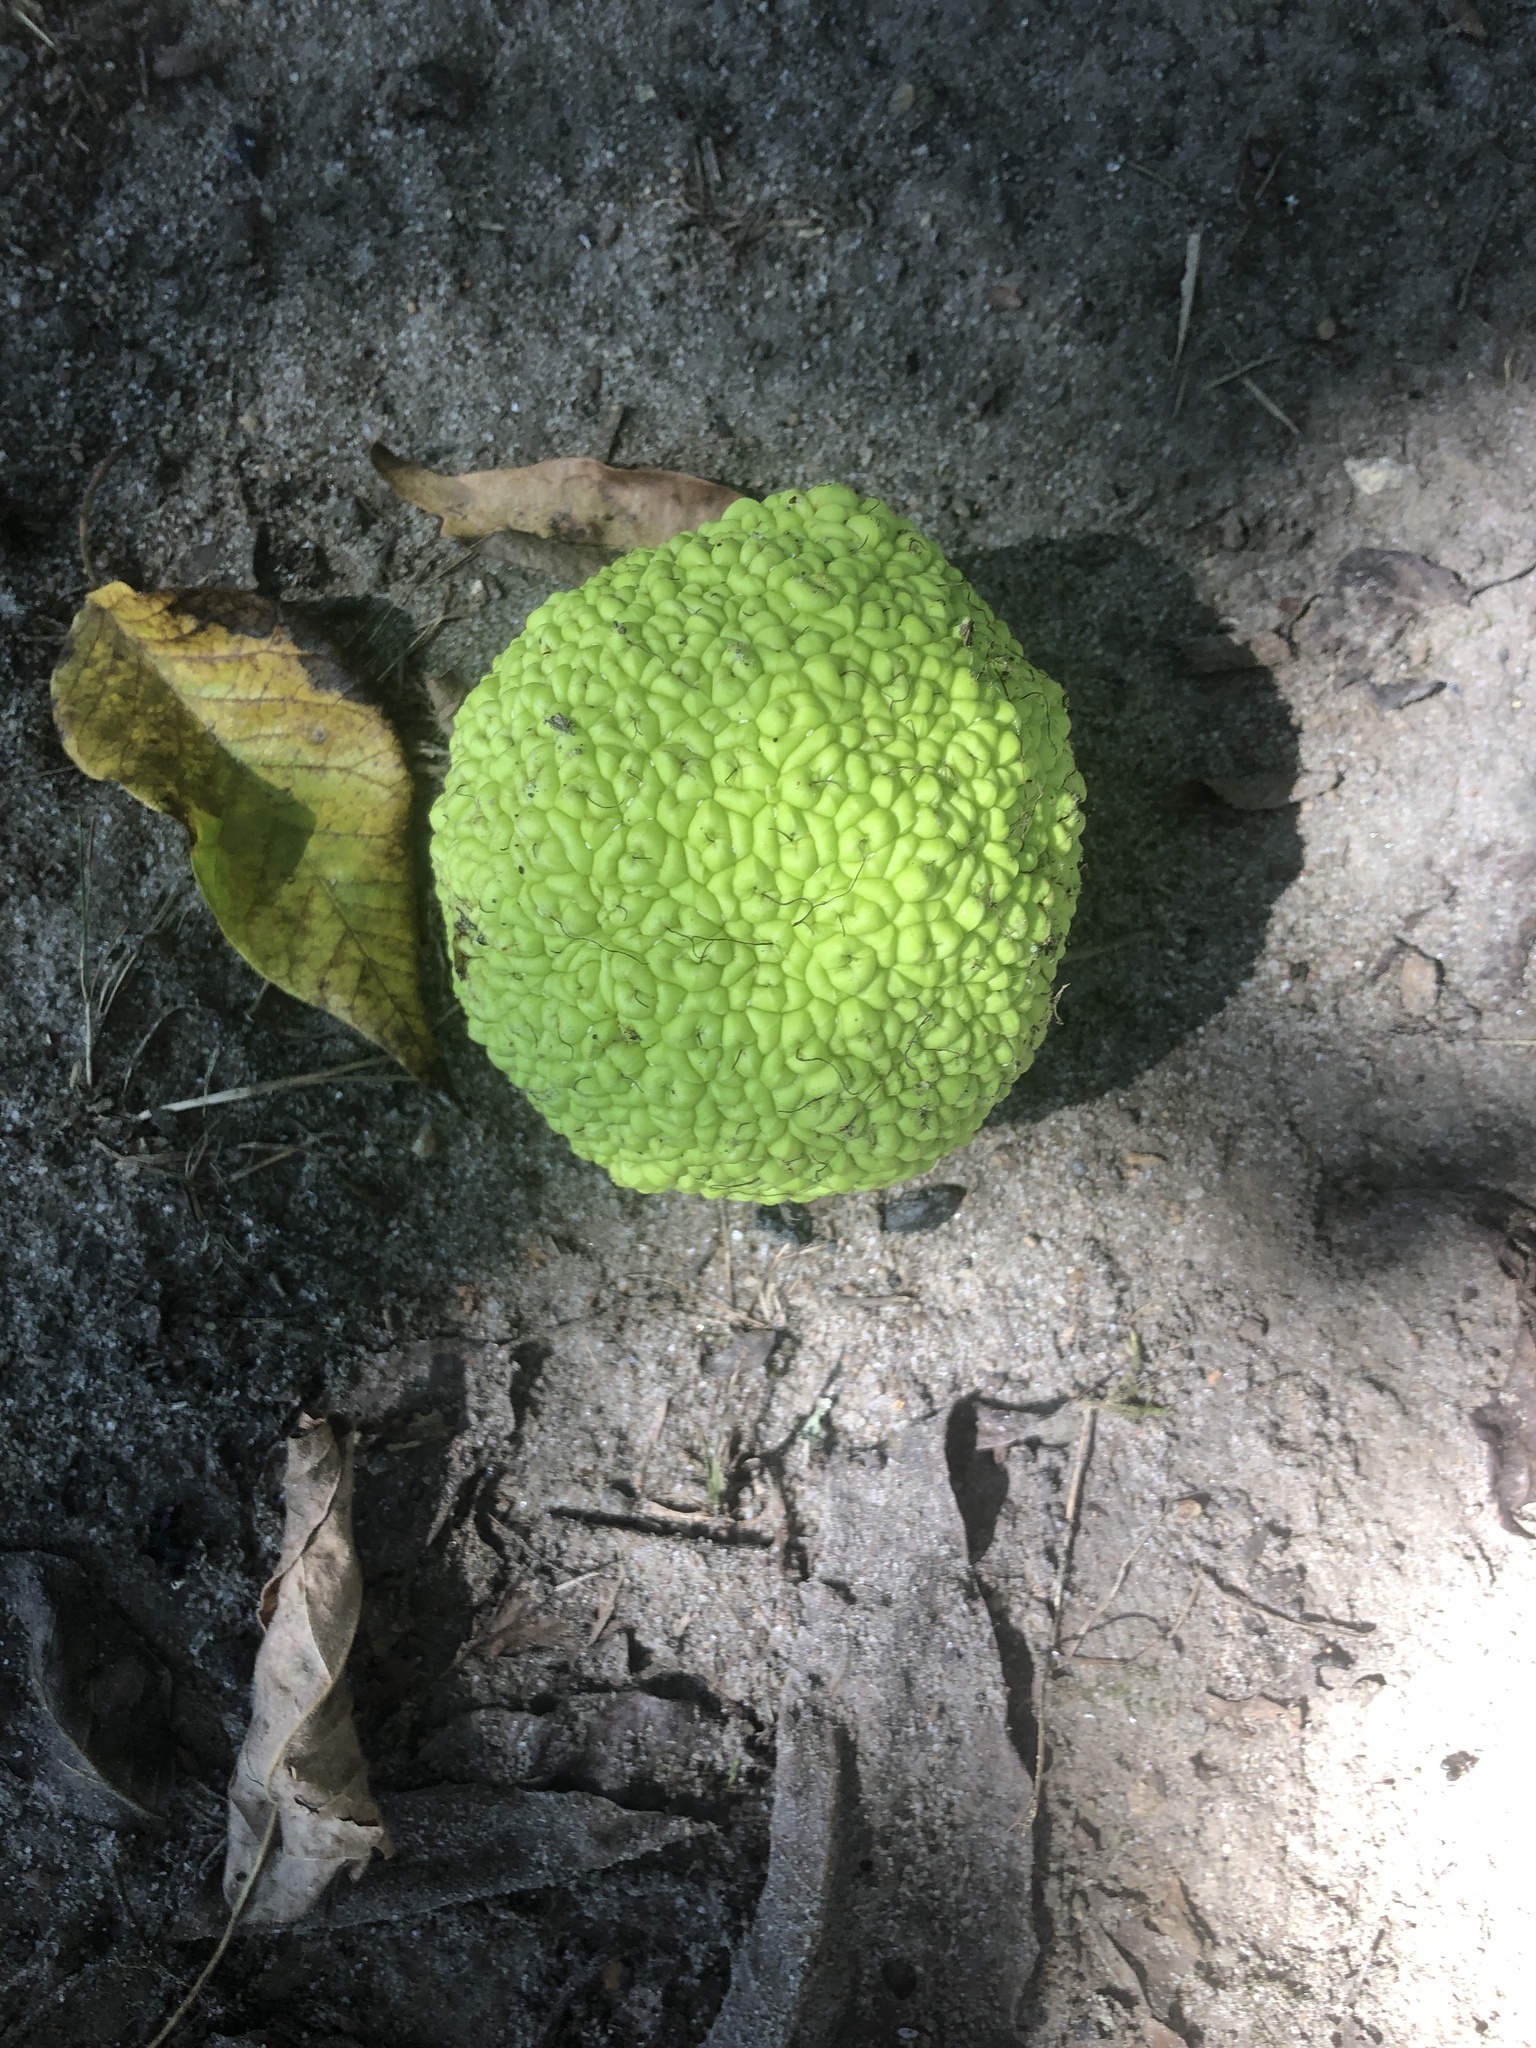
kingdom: Plantae
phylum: Tracheophyta
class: Magnoliopsida
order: Rosales
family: Moraceae
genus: Maclura
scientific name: Maclura pomifera
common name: Osage-orange
